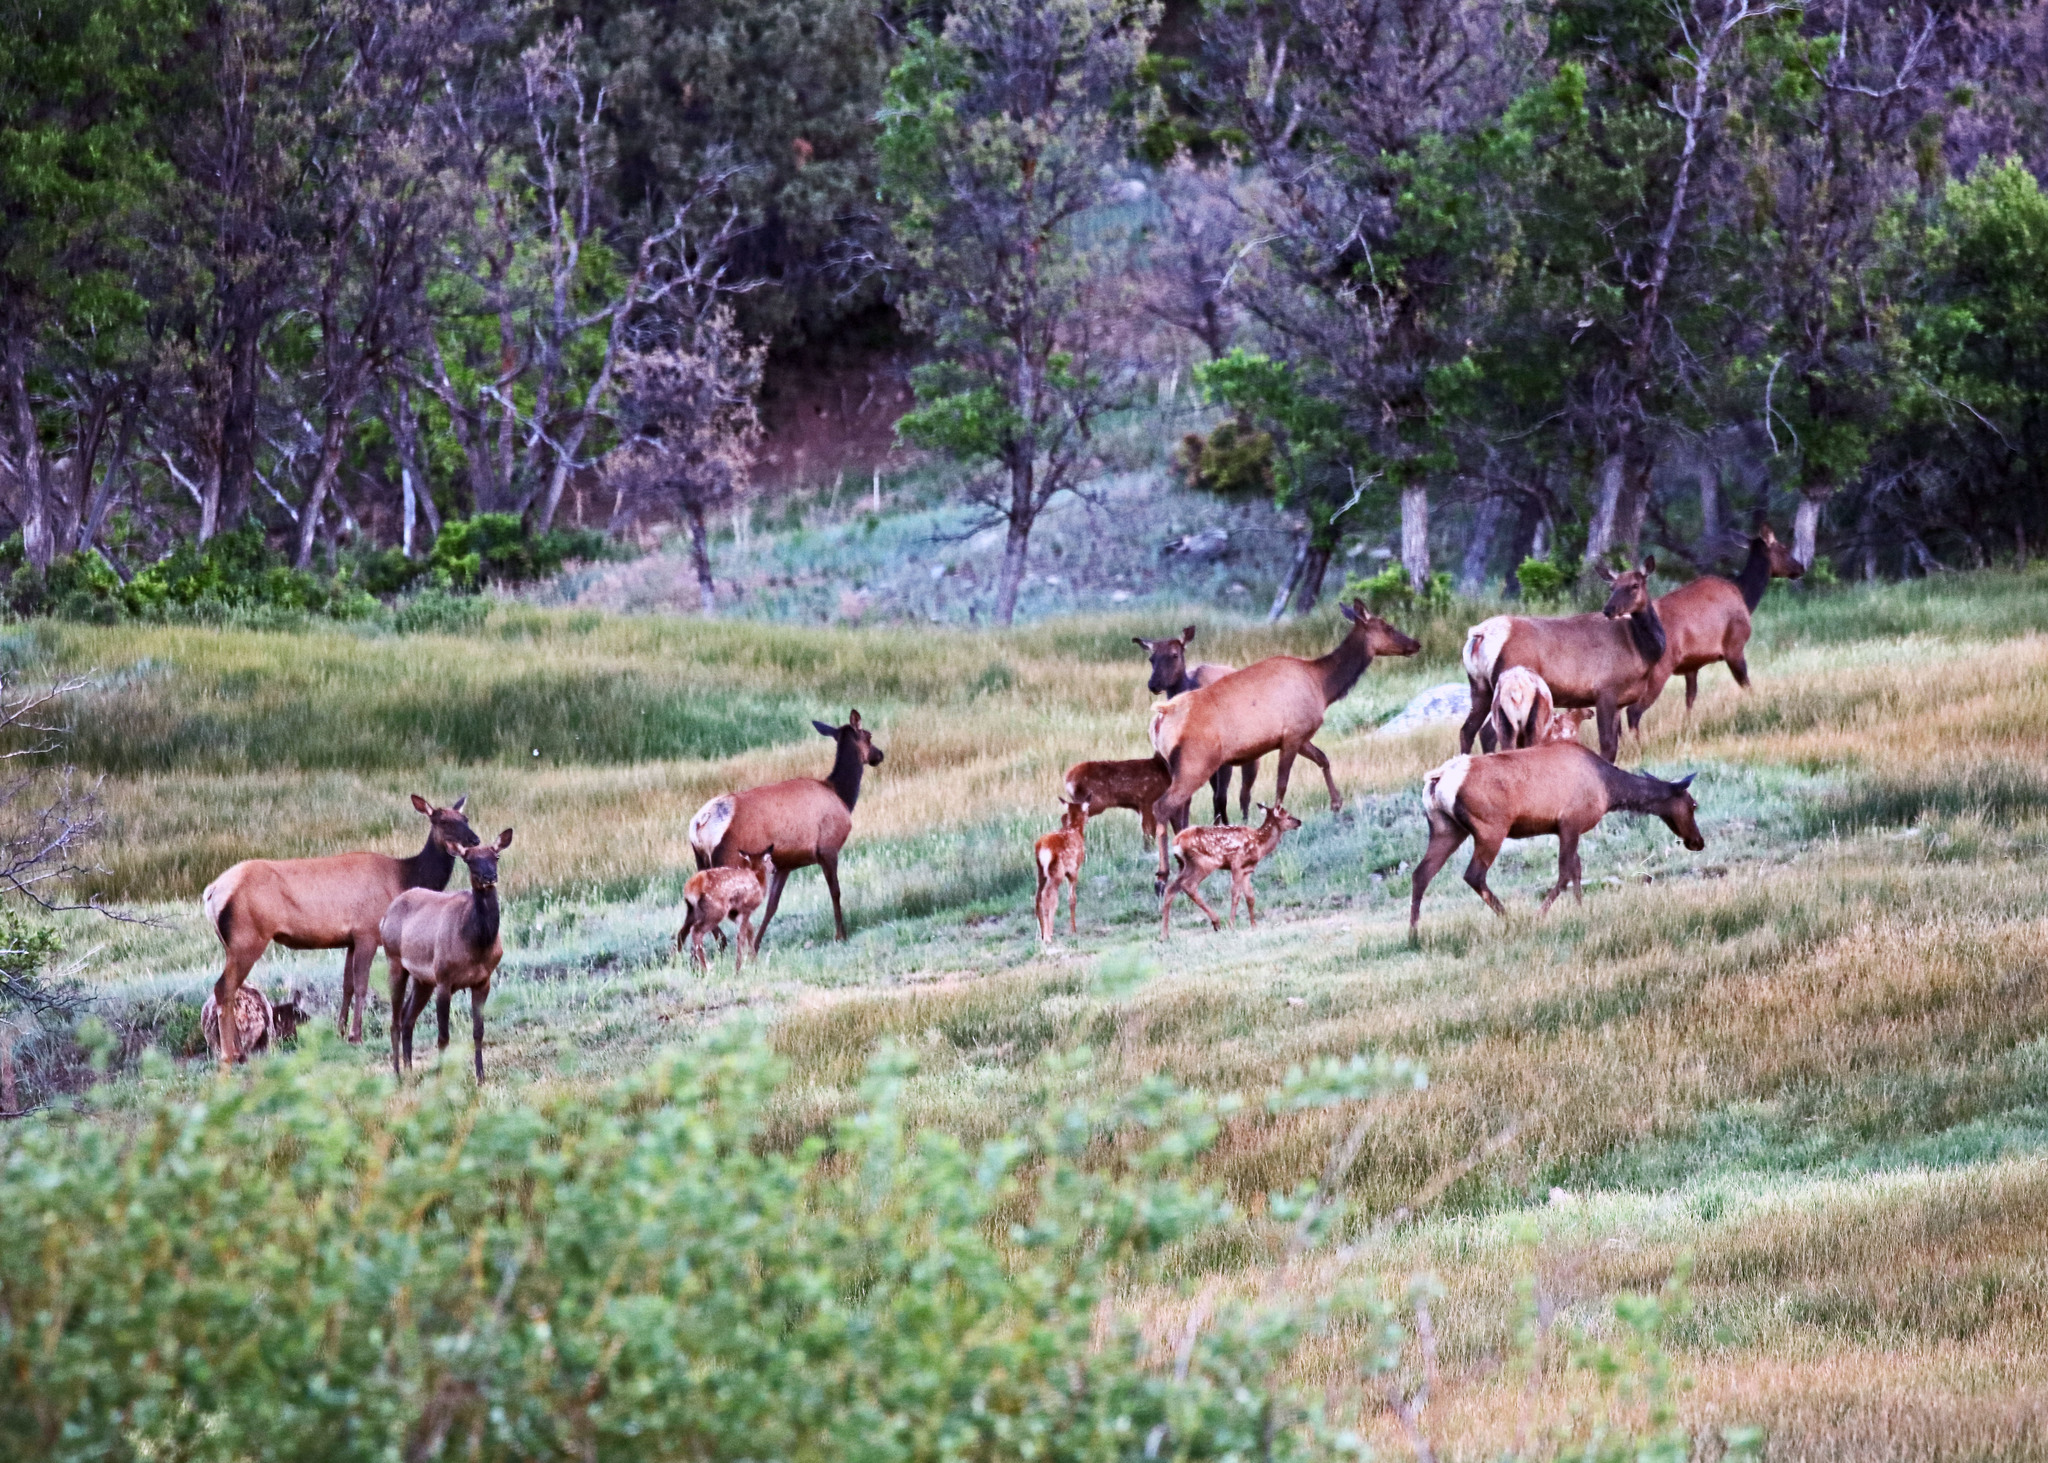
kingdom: Animalia
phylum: Chordata
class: Mammalia
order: Artiodactyla
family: Cervidae
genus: Cervus
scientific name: Cervus elaphus
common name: Red deer
